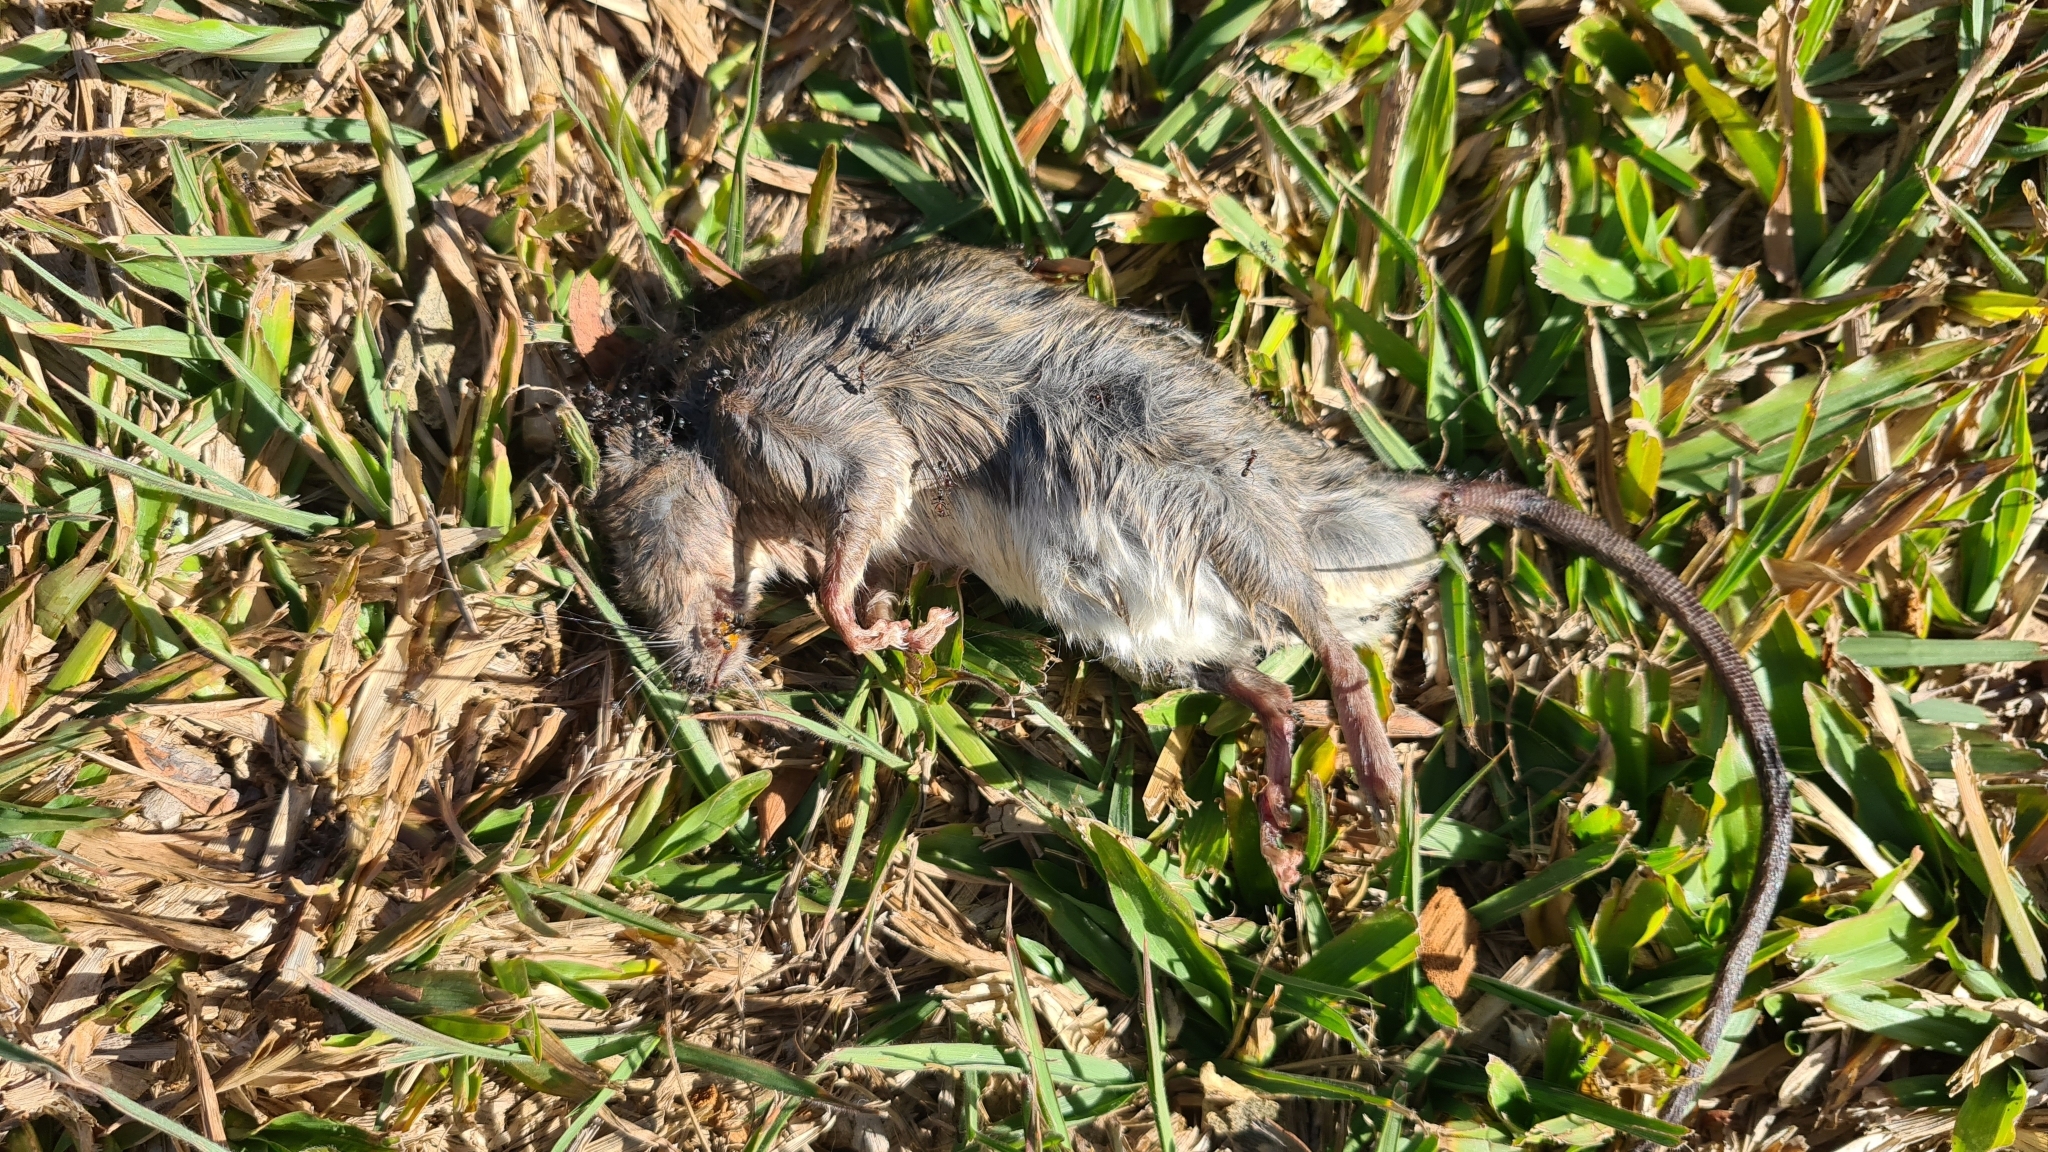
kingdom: Animalia
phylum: Chordata
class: Mammalia
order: Rodentia
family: Muridae
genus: Rattus
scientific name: Rattus rattus
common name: Black rat
